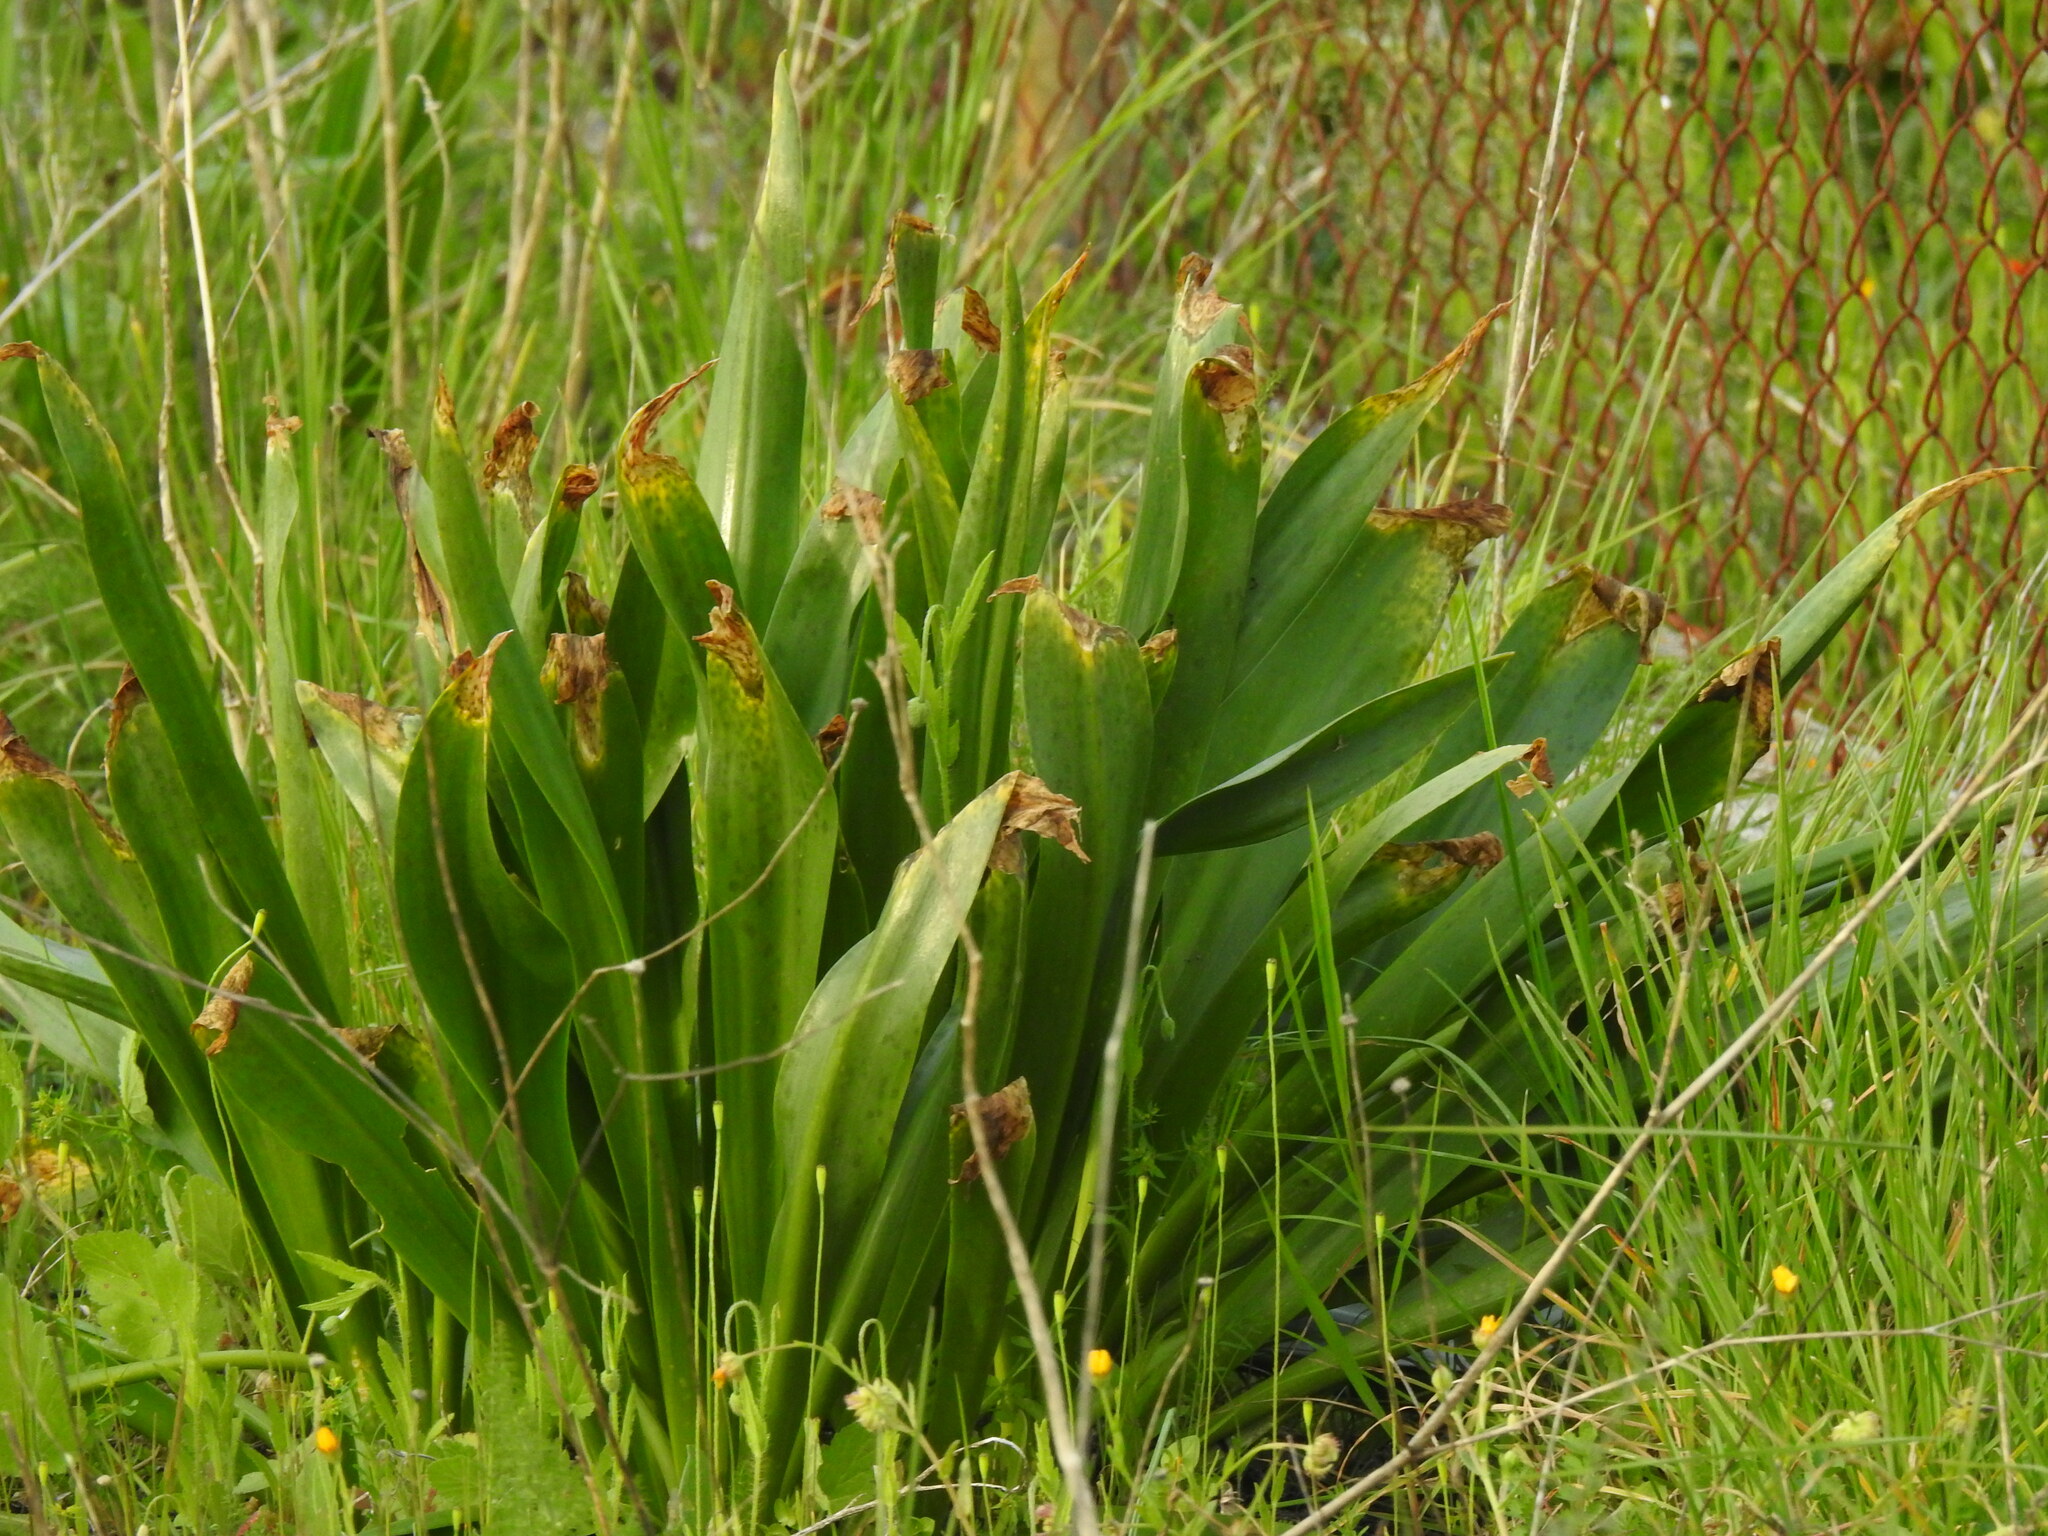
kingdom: Plantae
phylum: Tracheophyta
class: Liliopsida
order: Asparagales
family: Asparagaceae
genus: Drimia
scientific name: Drimia maritima
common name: Maritime squill
